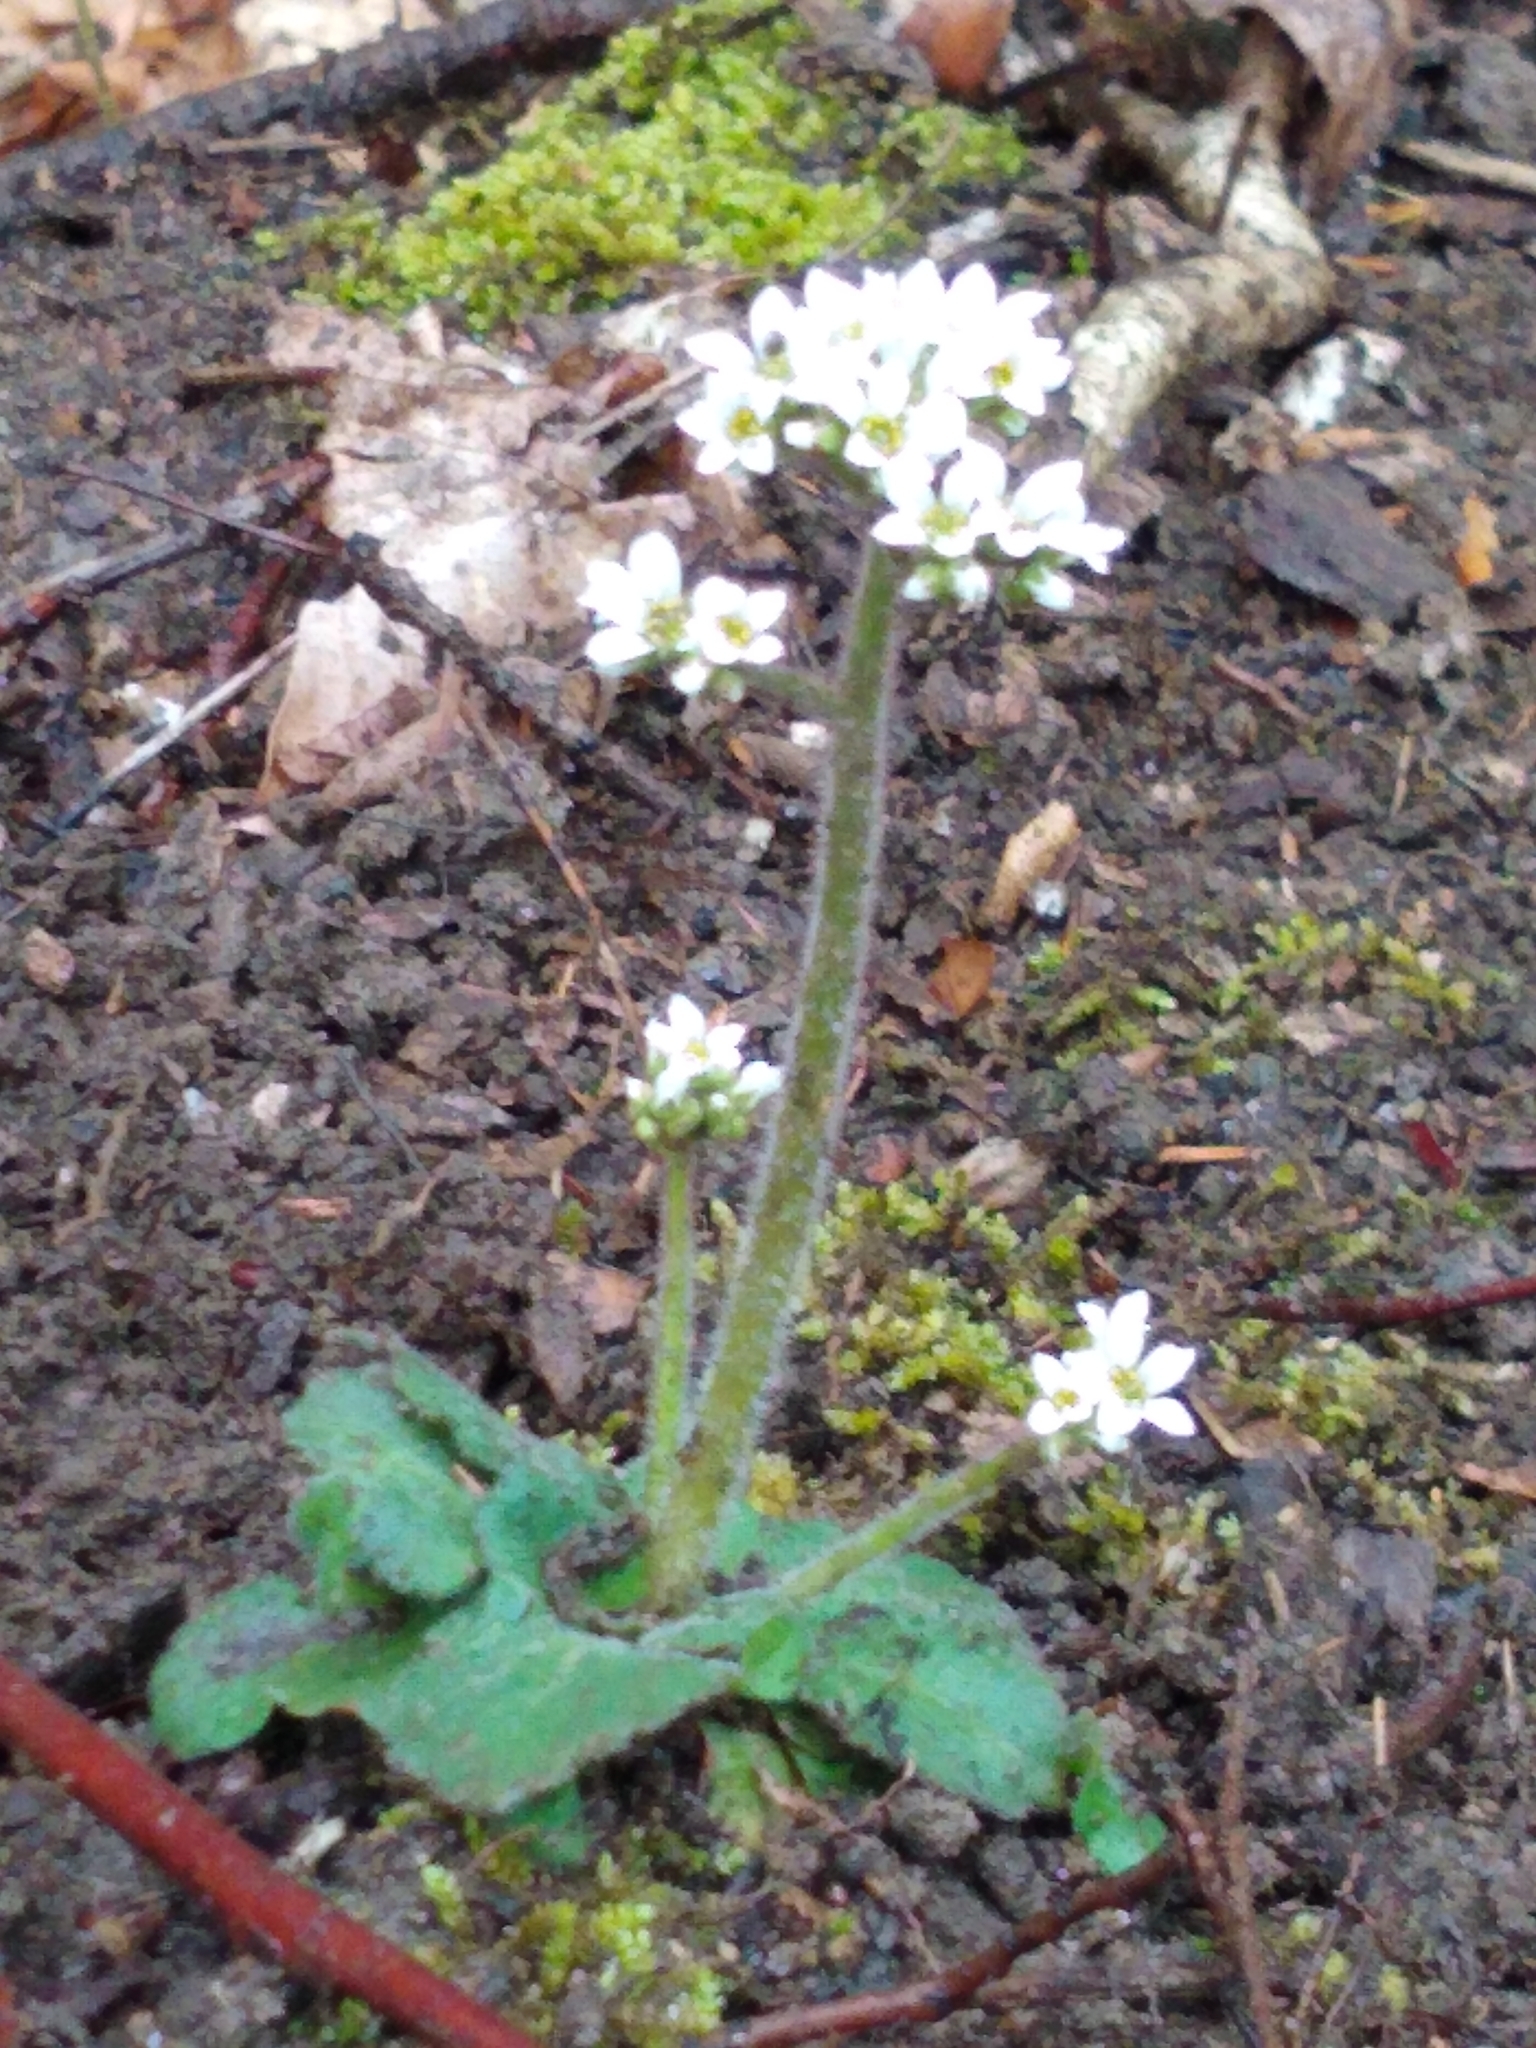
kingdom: Plantae
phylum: Tracheophyta
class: Magnoliopsida
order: Saxifragales
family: Saxifragaceae
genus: Micranthes
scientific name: Micranthes virginiensis
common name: Early saxifrage
